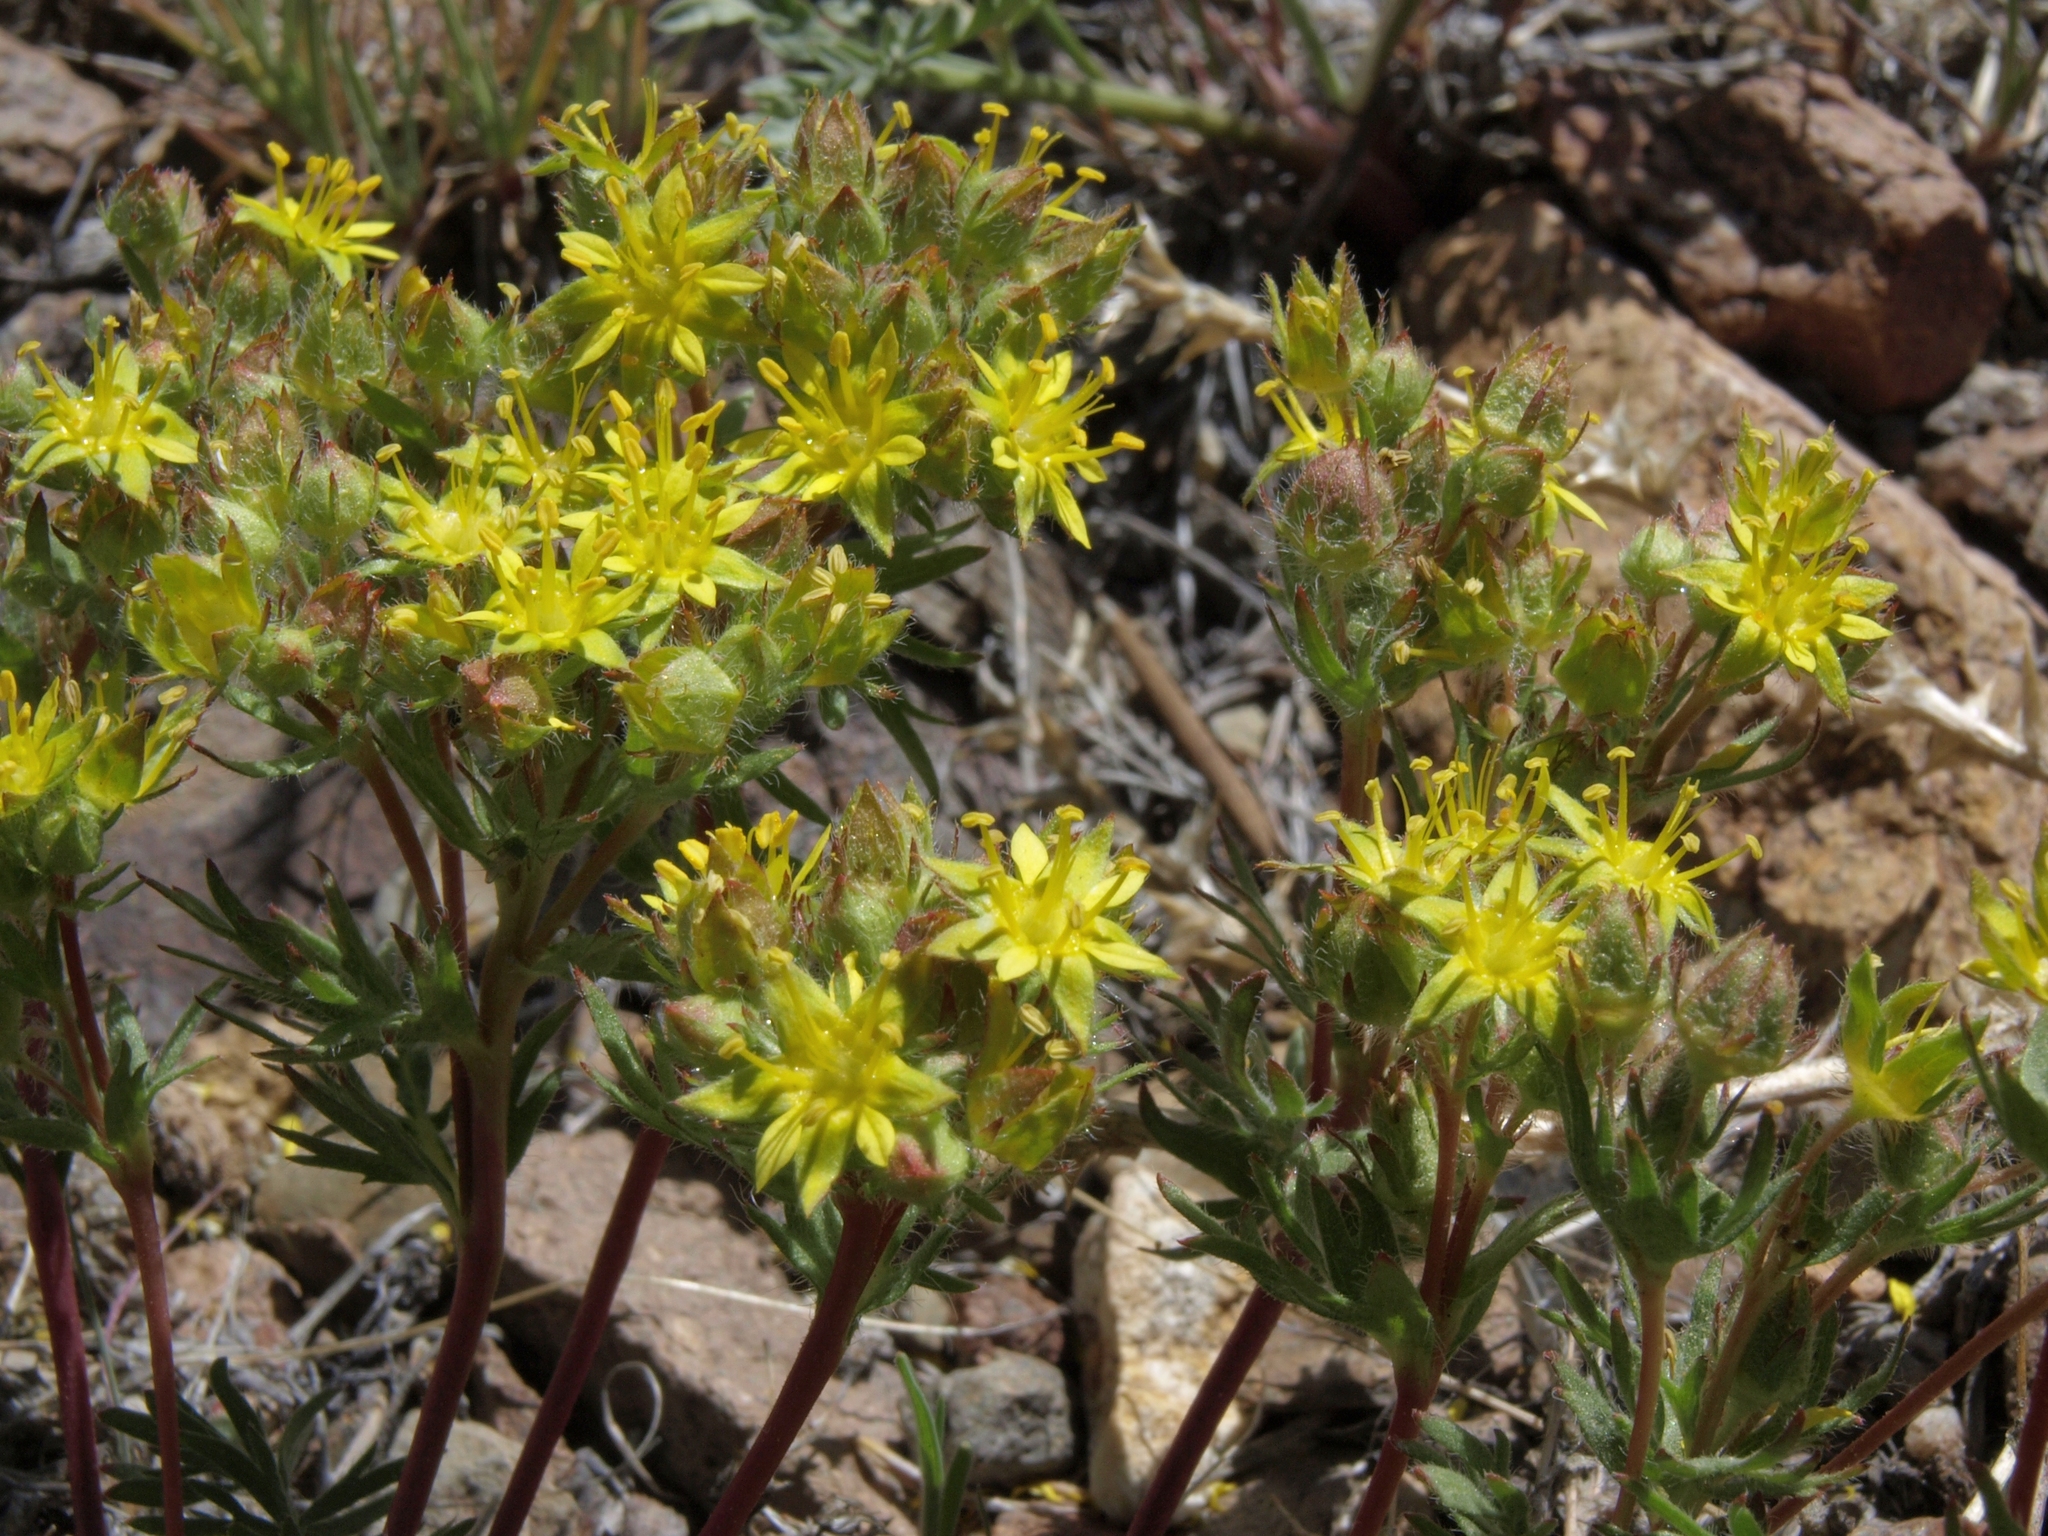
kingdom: Plantae
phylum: Tracheophyta
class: Magnoliopsida
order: Rosales
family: Rosaceae
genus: Potentilla
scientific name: Potentilla webberi
